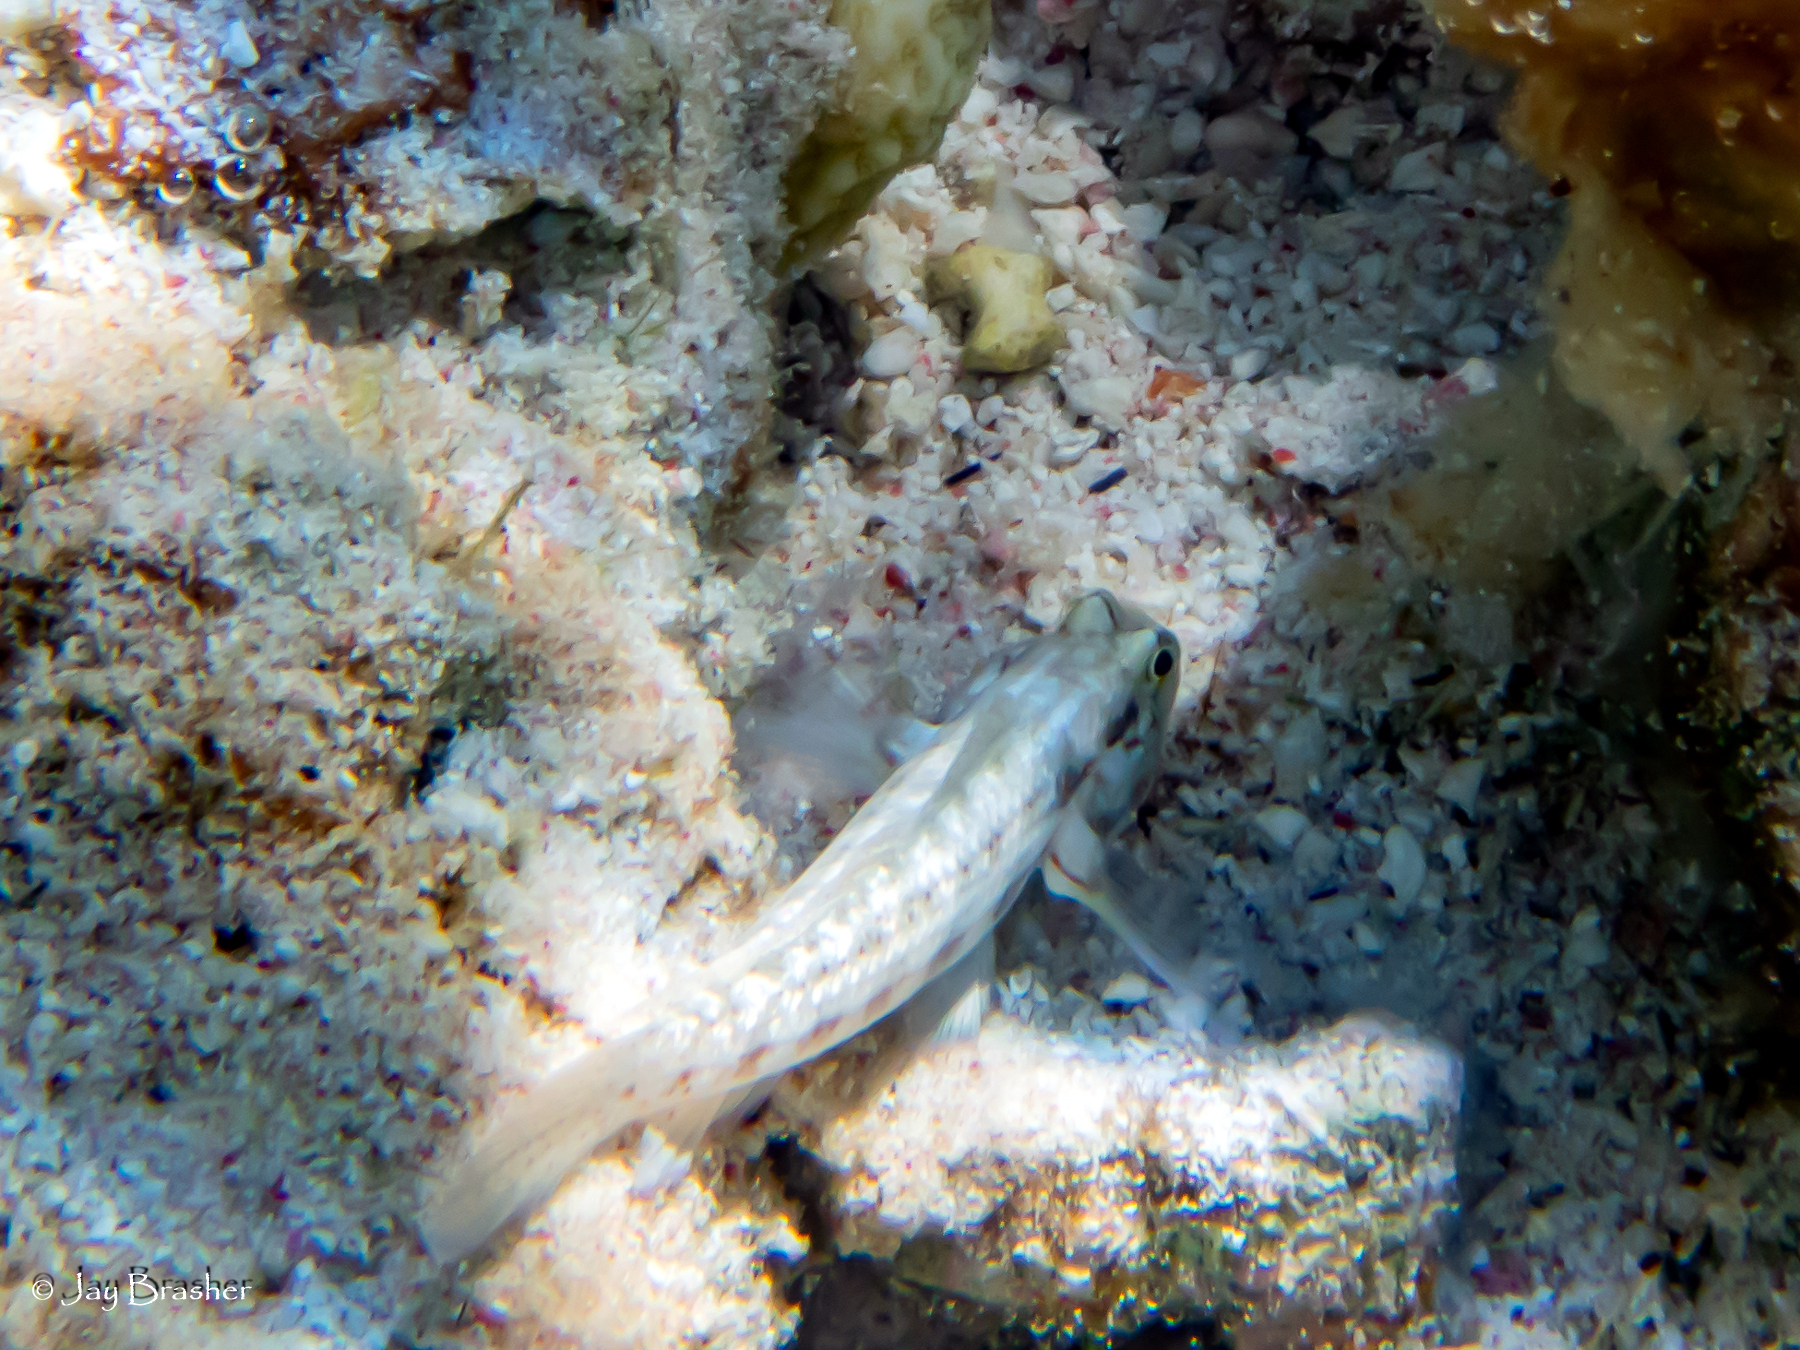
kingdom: Animalia
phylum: Chordata
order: Perciformes
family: Gobiidae
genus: Gnatholepis
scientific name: Gnatholepis thompsoni
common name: Goldspot goby
